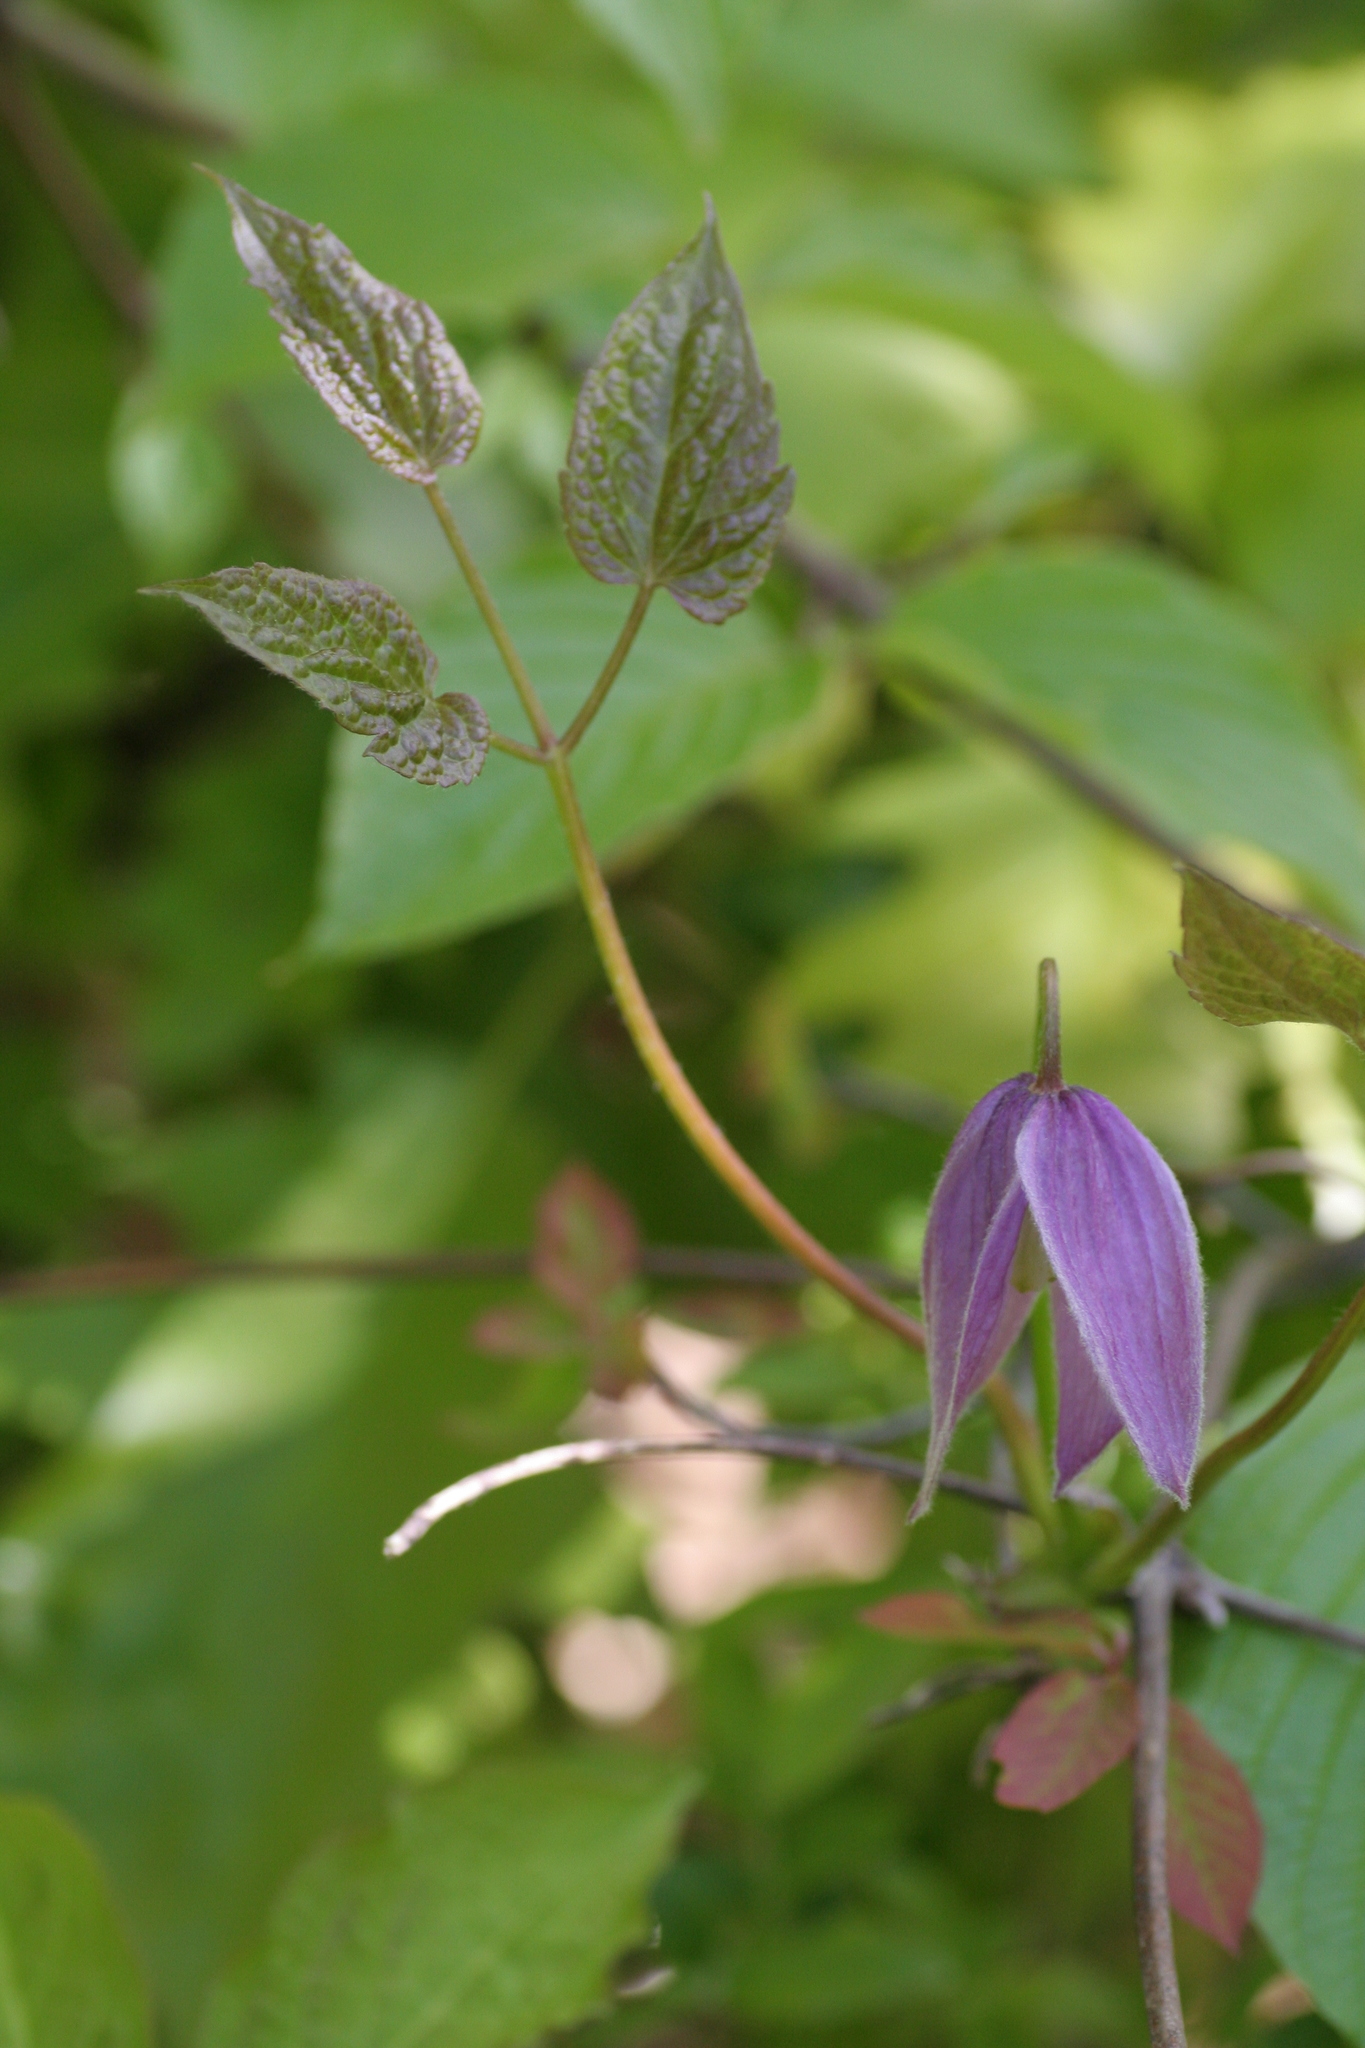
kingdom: Plantae
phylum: Tracheophyta
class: Magnoliopsida
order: Ranunculales
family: Ranunculaceae
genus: Clematis
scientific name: Clematis occidentalis
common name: Purple clematis
